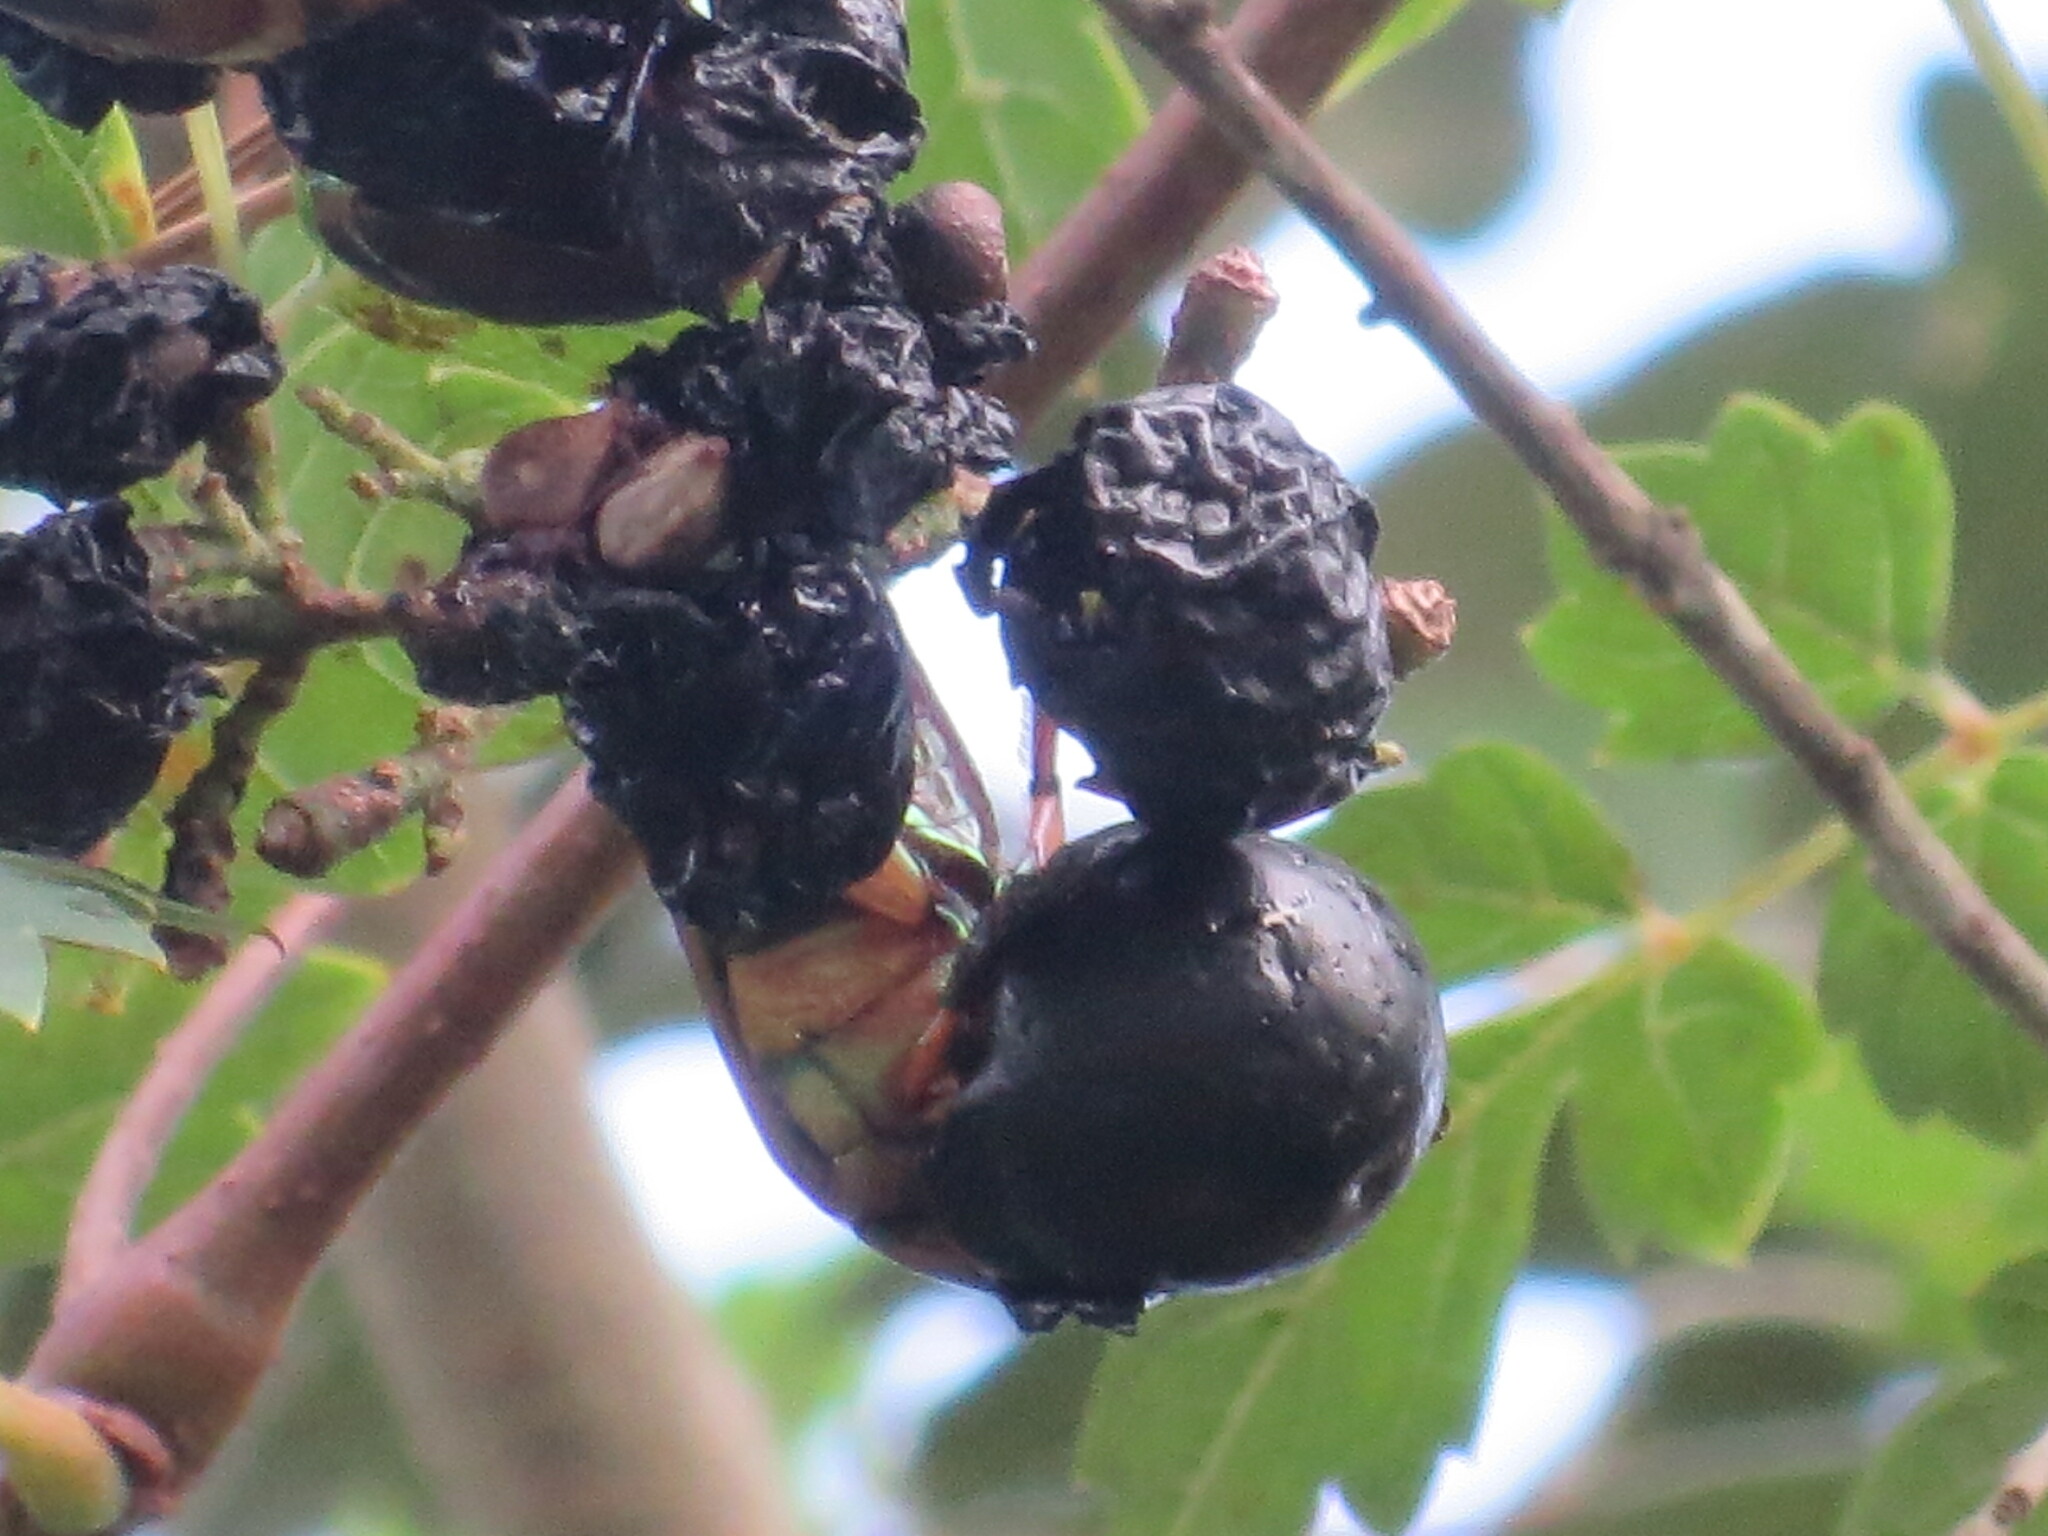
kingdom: Animalia
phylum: Arthropoda
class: Insecta
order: Coleoptera
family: Scarabaeidae
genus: Cotinis
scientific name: Cotinis nitida
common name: Common green june beetle
